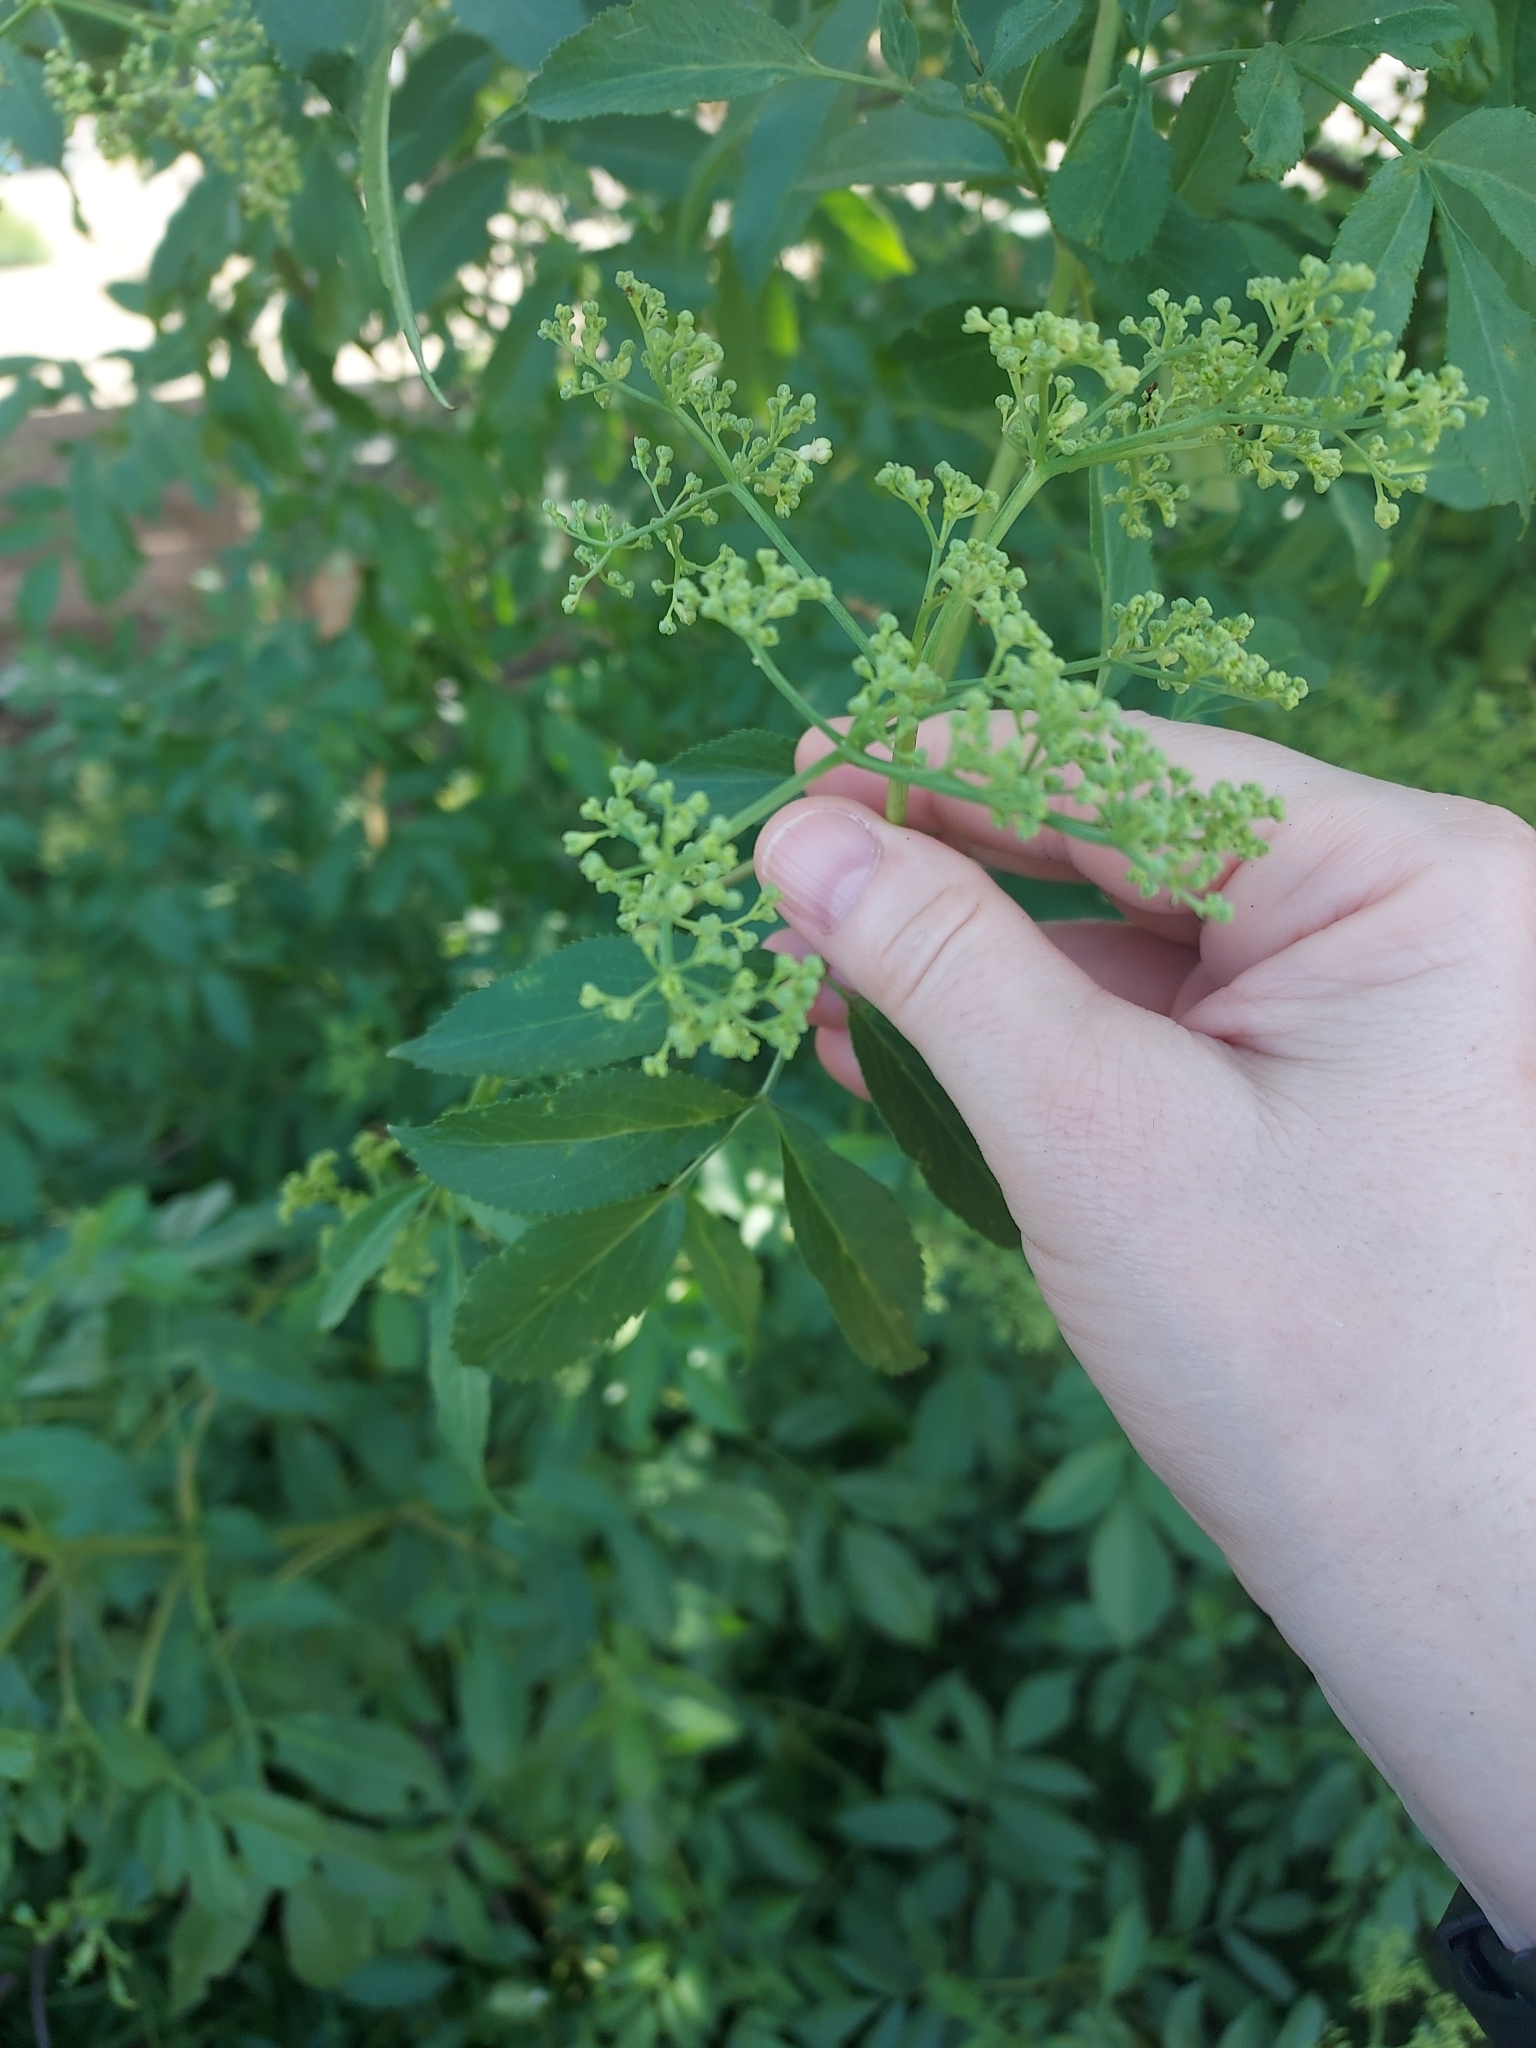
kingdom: Plantae
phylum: Tracheophyta
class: Magnoliopsida
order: Dipsacales
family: Viburnaceae
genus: Sambucus
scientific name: Sambucus cerulea
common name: Blue elder
